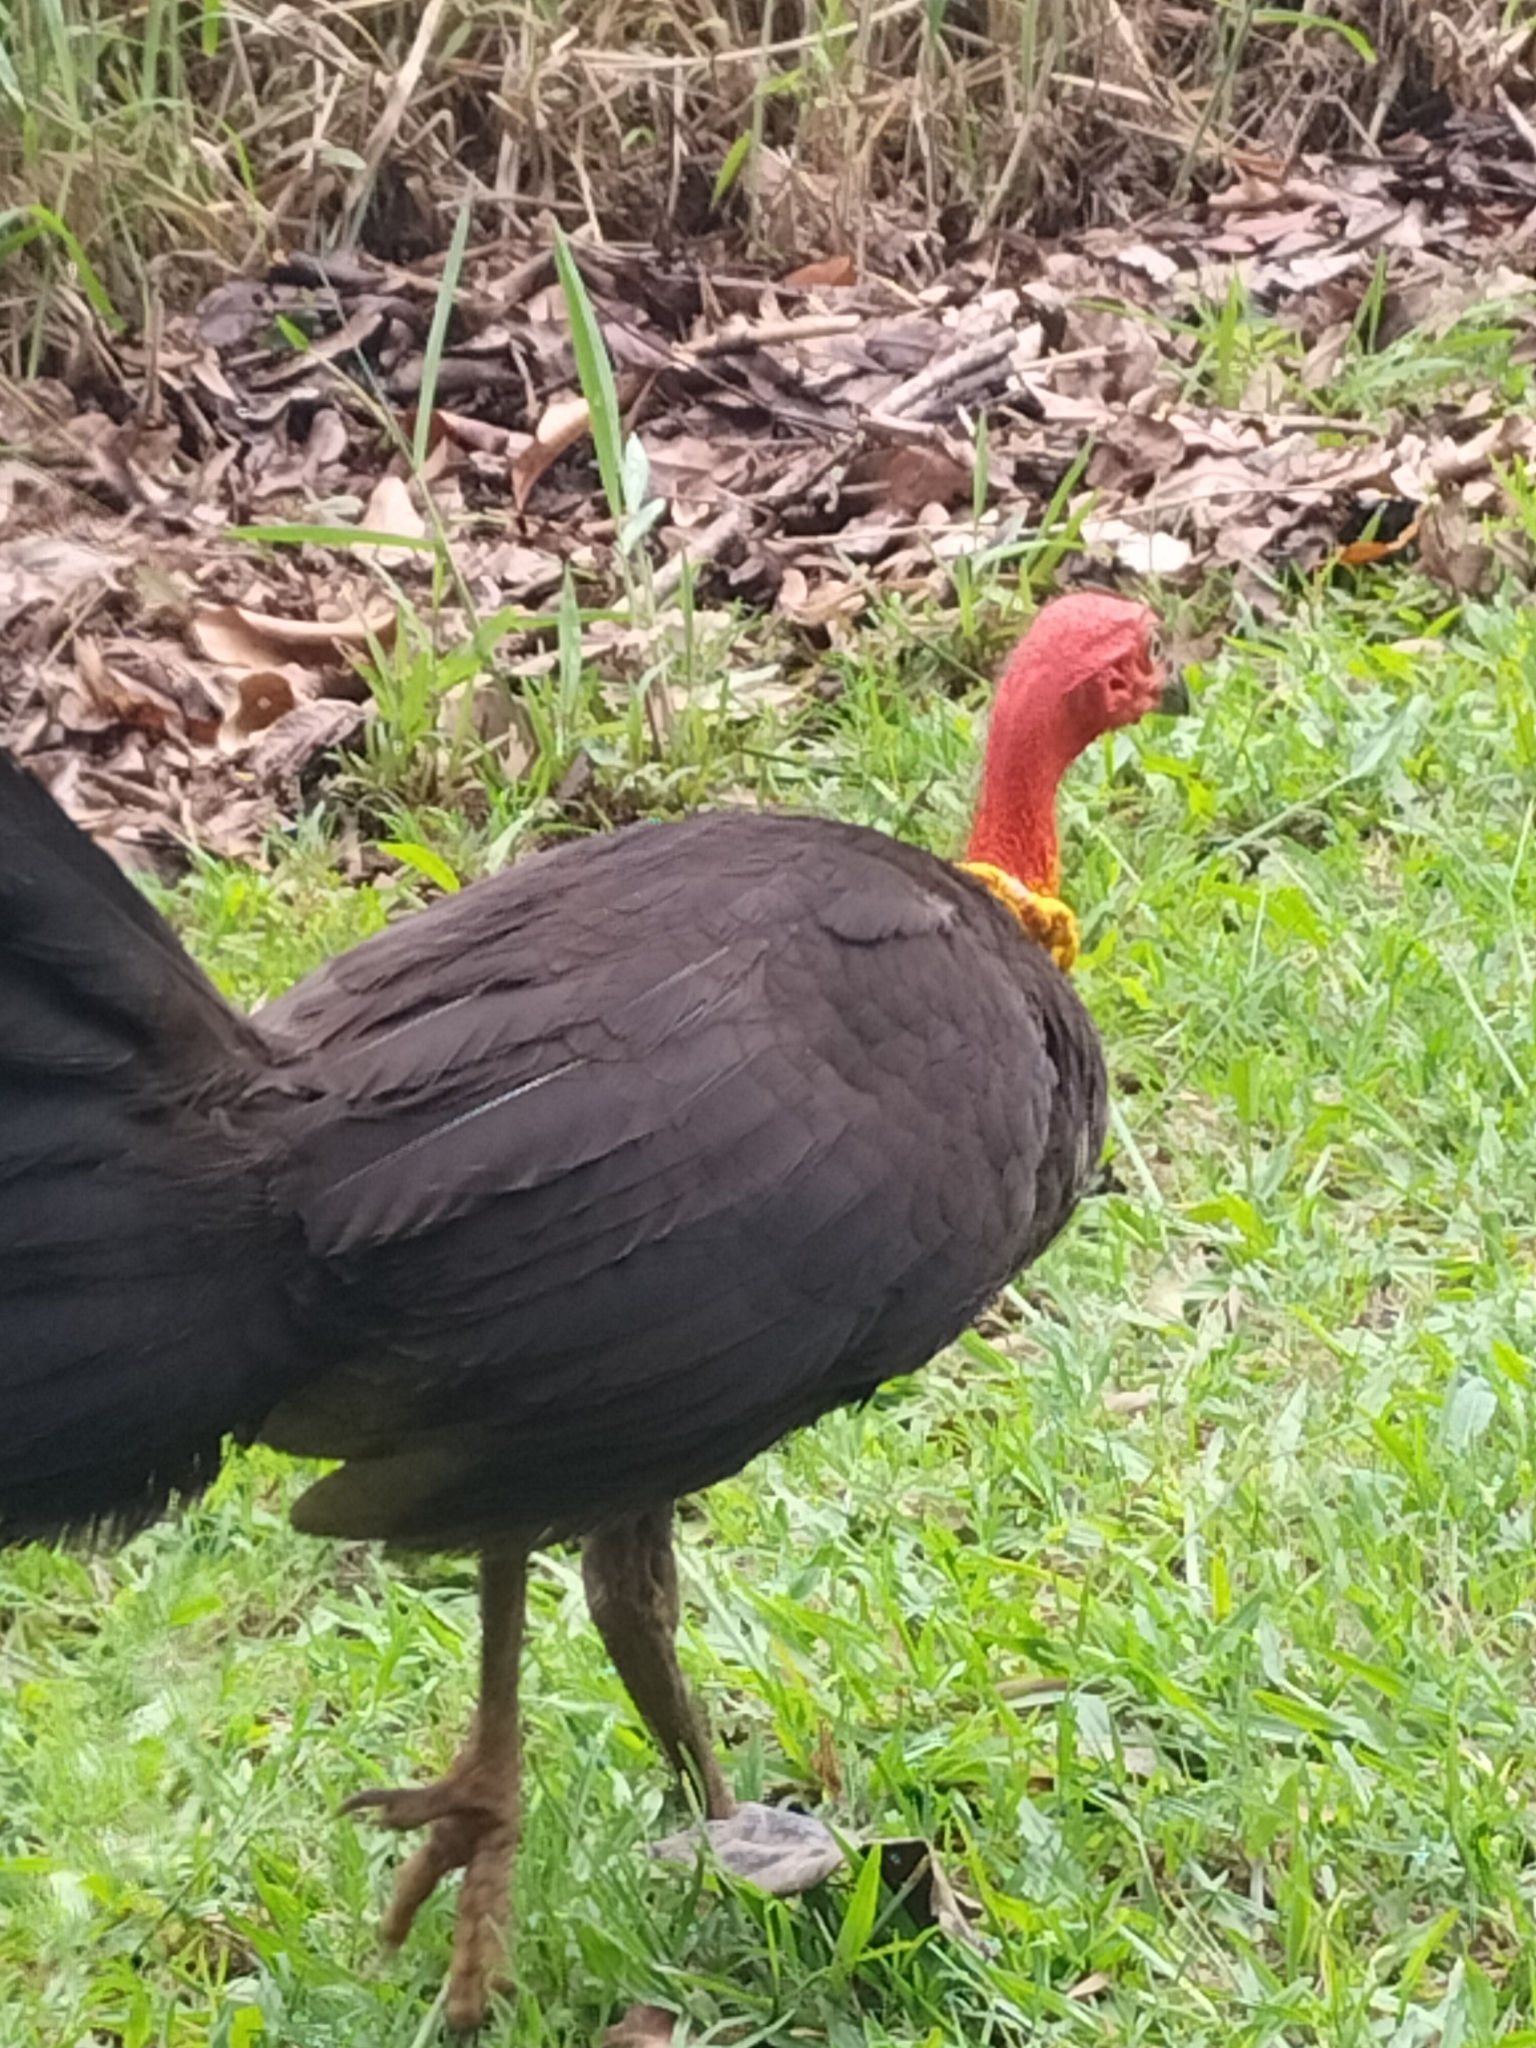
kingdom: Animalia
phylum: Chordata
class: Aves
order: Galliformes
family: Megapodiidae
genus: Alectura
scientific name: Alectura lathami
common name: Australian brushturkey
